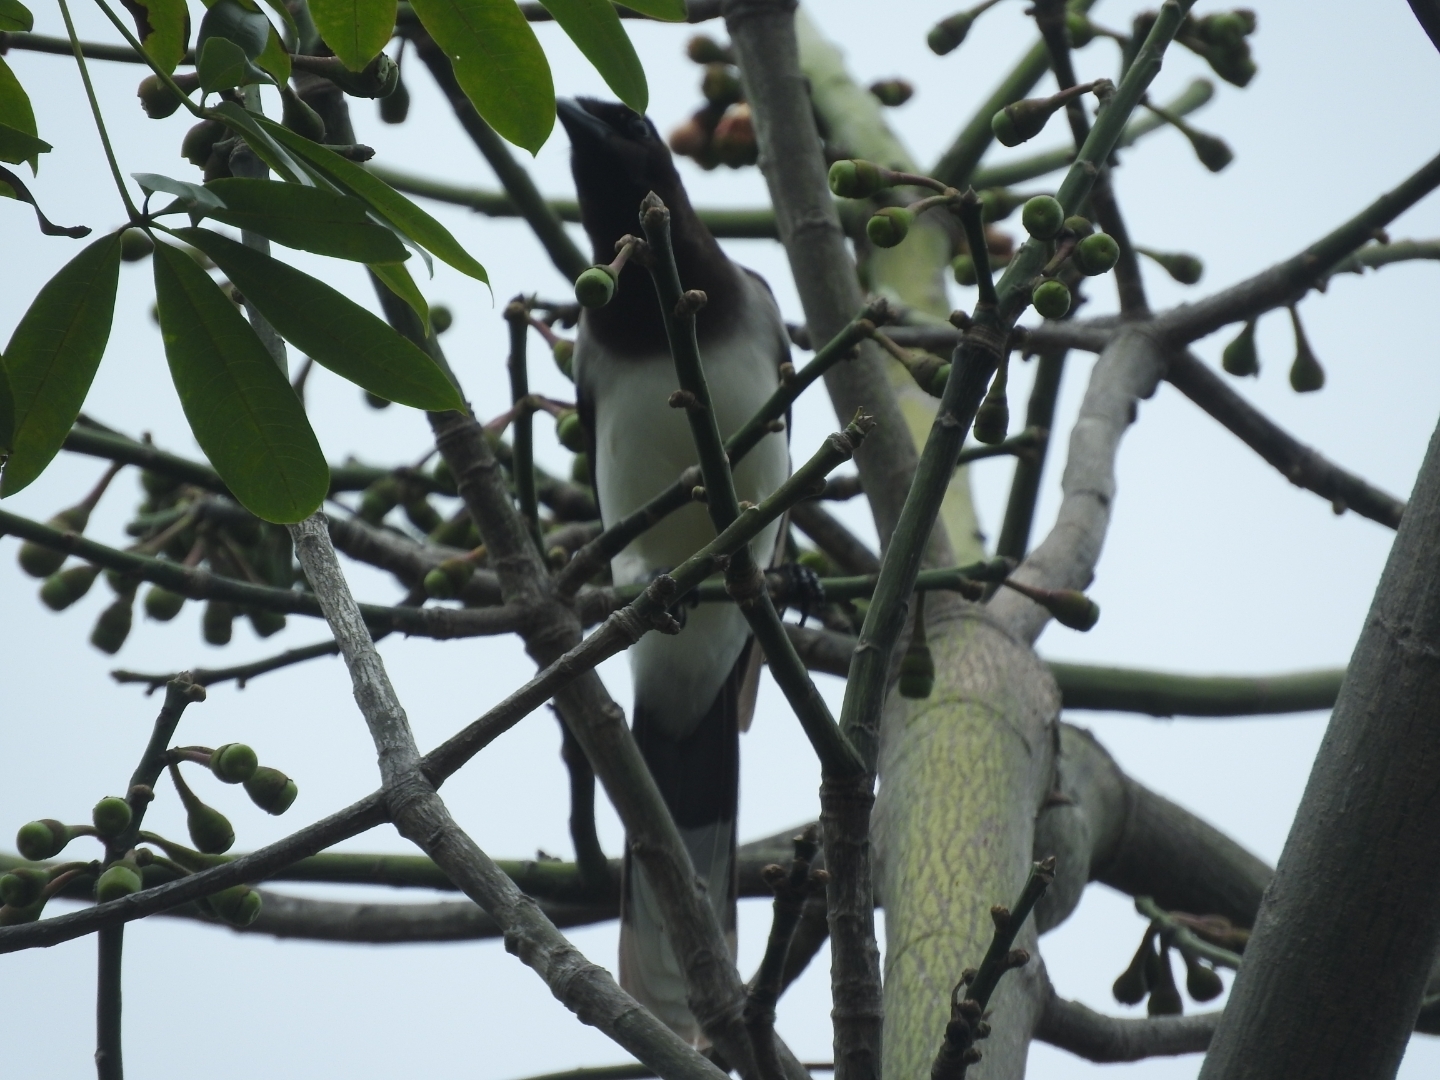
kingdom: Animalia
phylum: Chordata
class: Aves
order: Passeriformes
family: Corvidae
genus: Psilorhinus
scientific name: Psilorhinus morio
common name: Brown jay
